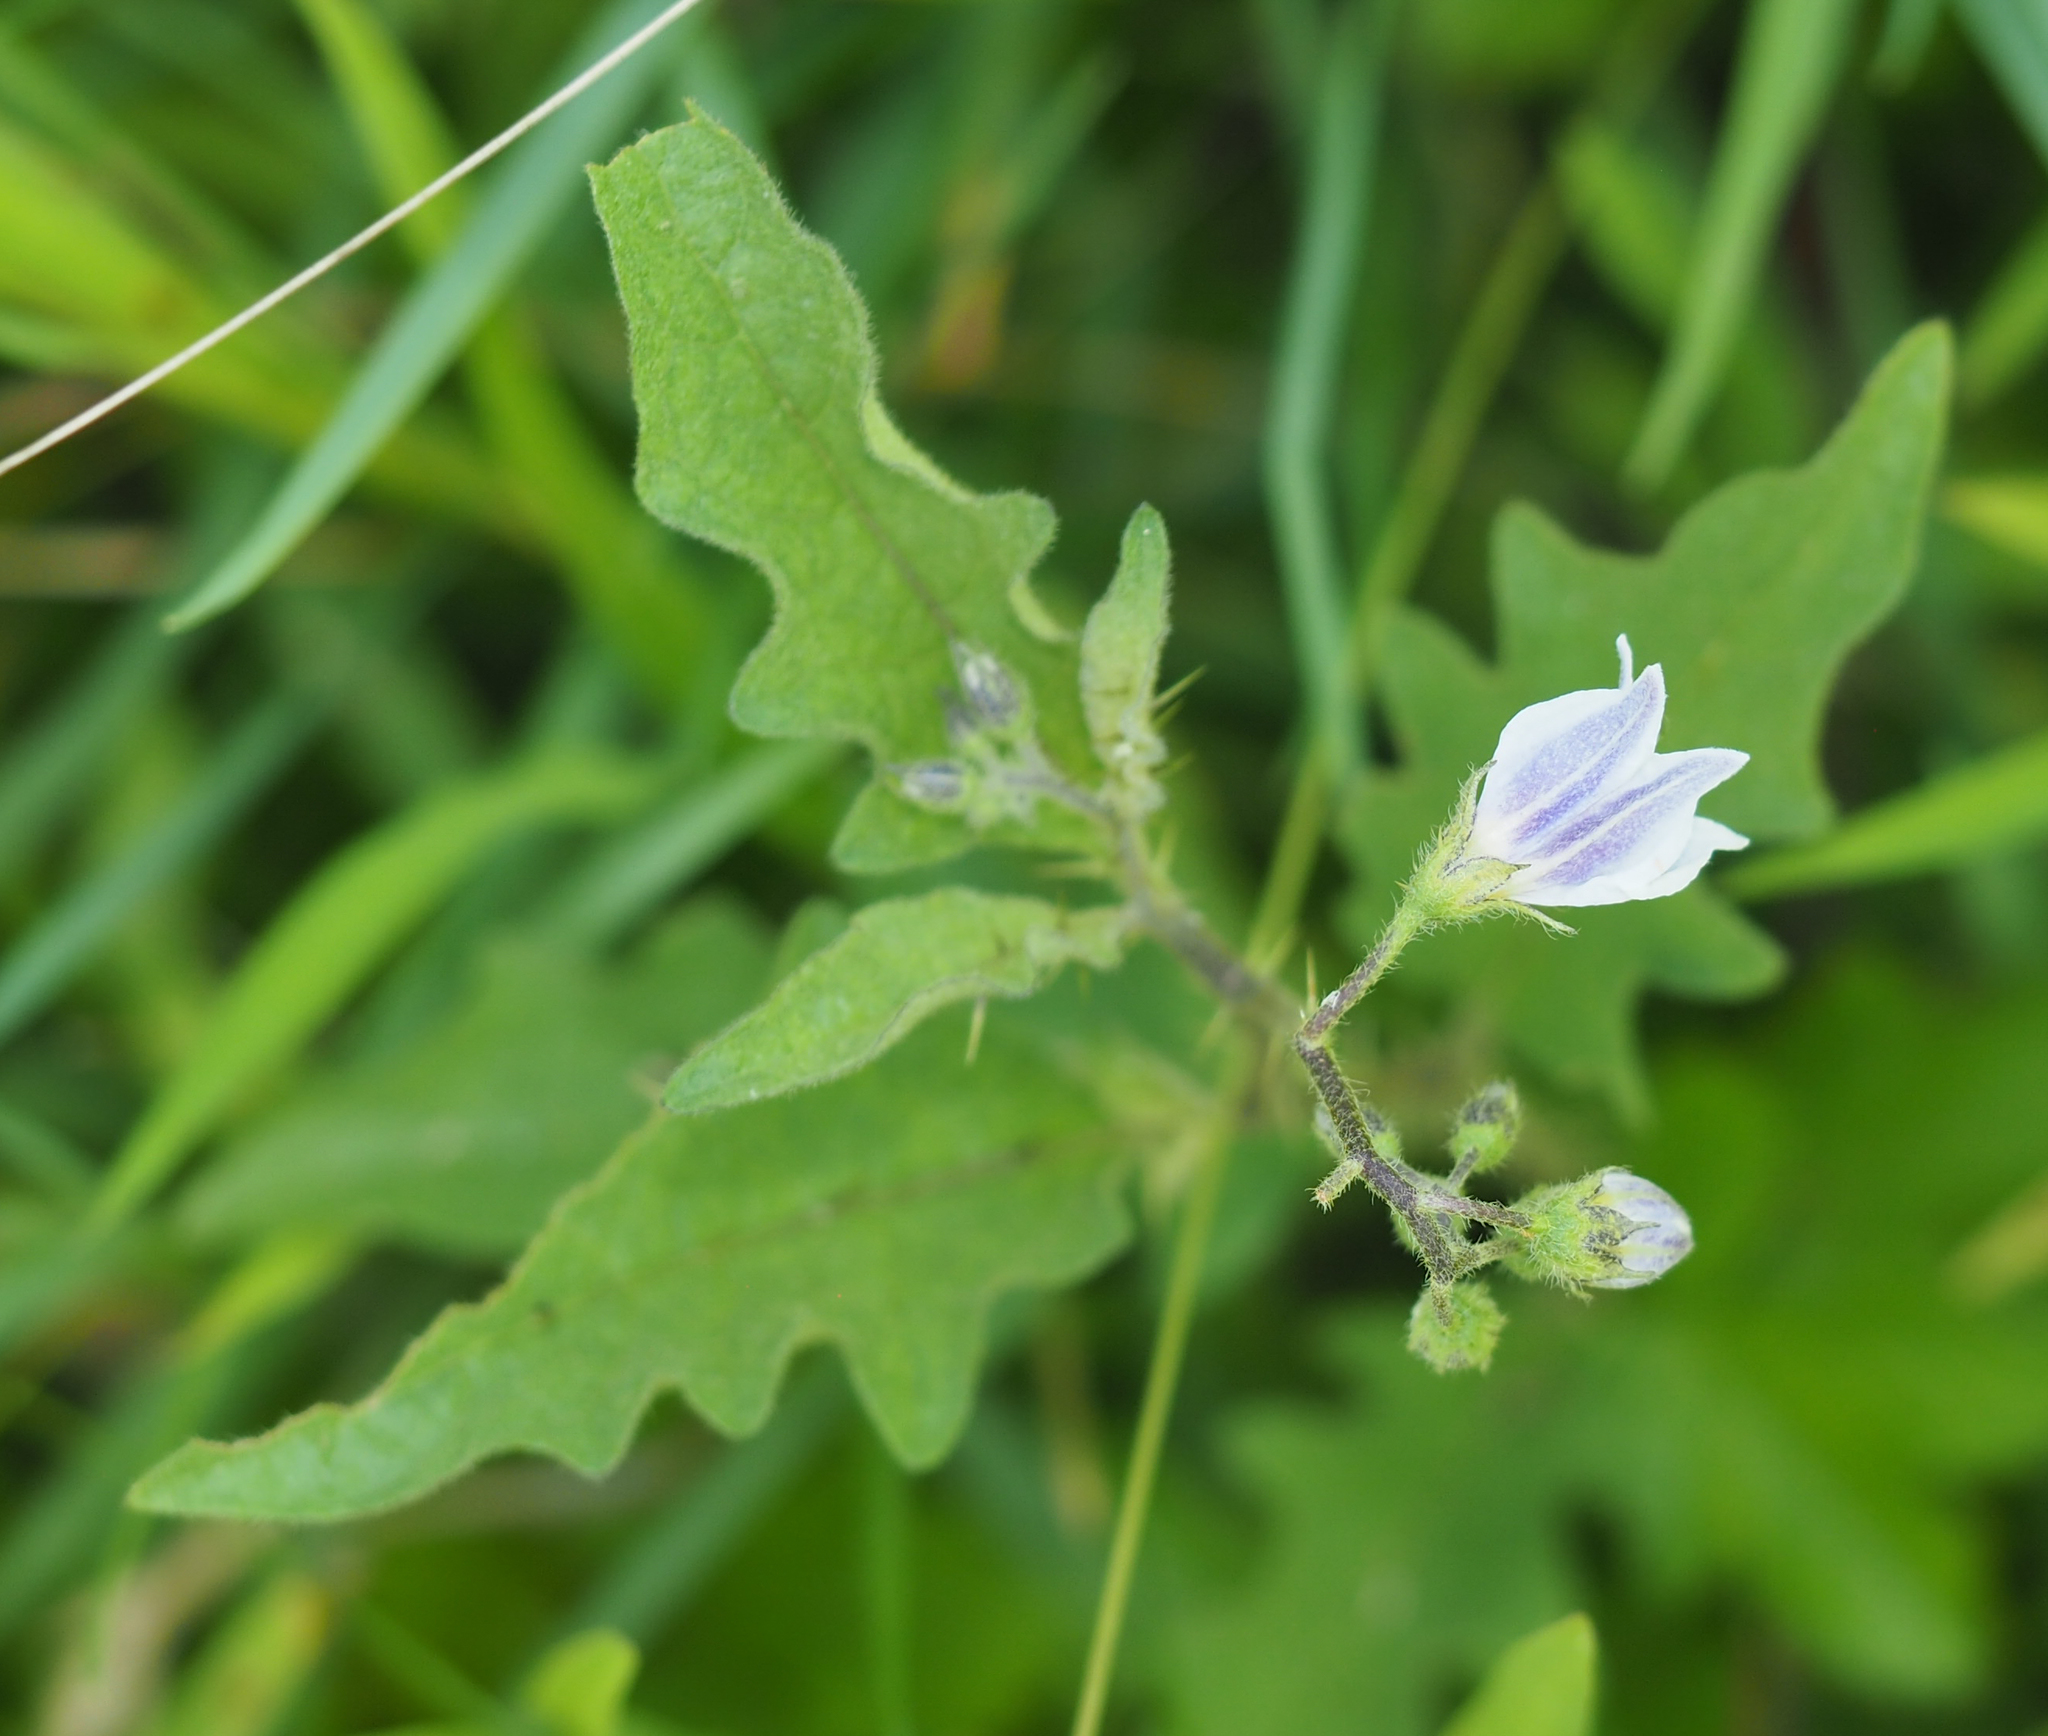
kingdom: Plantae
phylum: Tracheophyta
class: Magnoliopsida
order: Solanales
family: Solanaceae
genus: Solanum
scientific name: Solanum carolinense
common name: Horse-nettle
